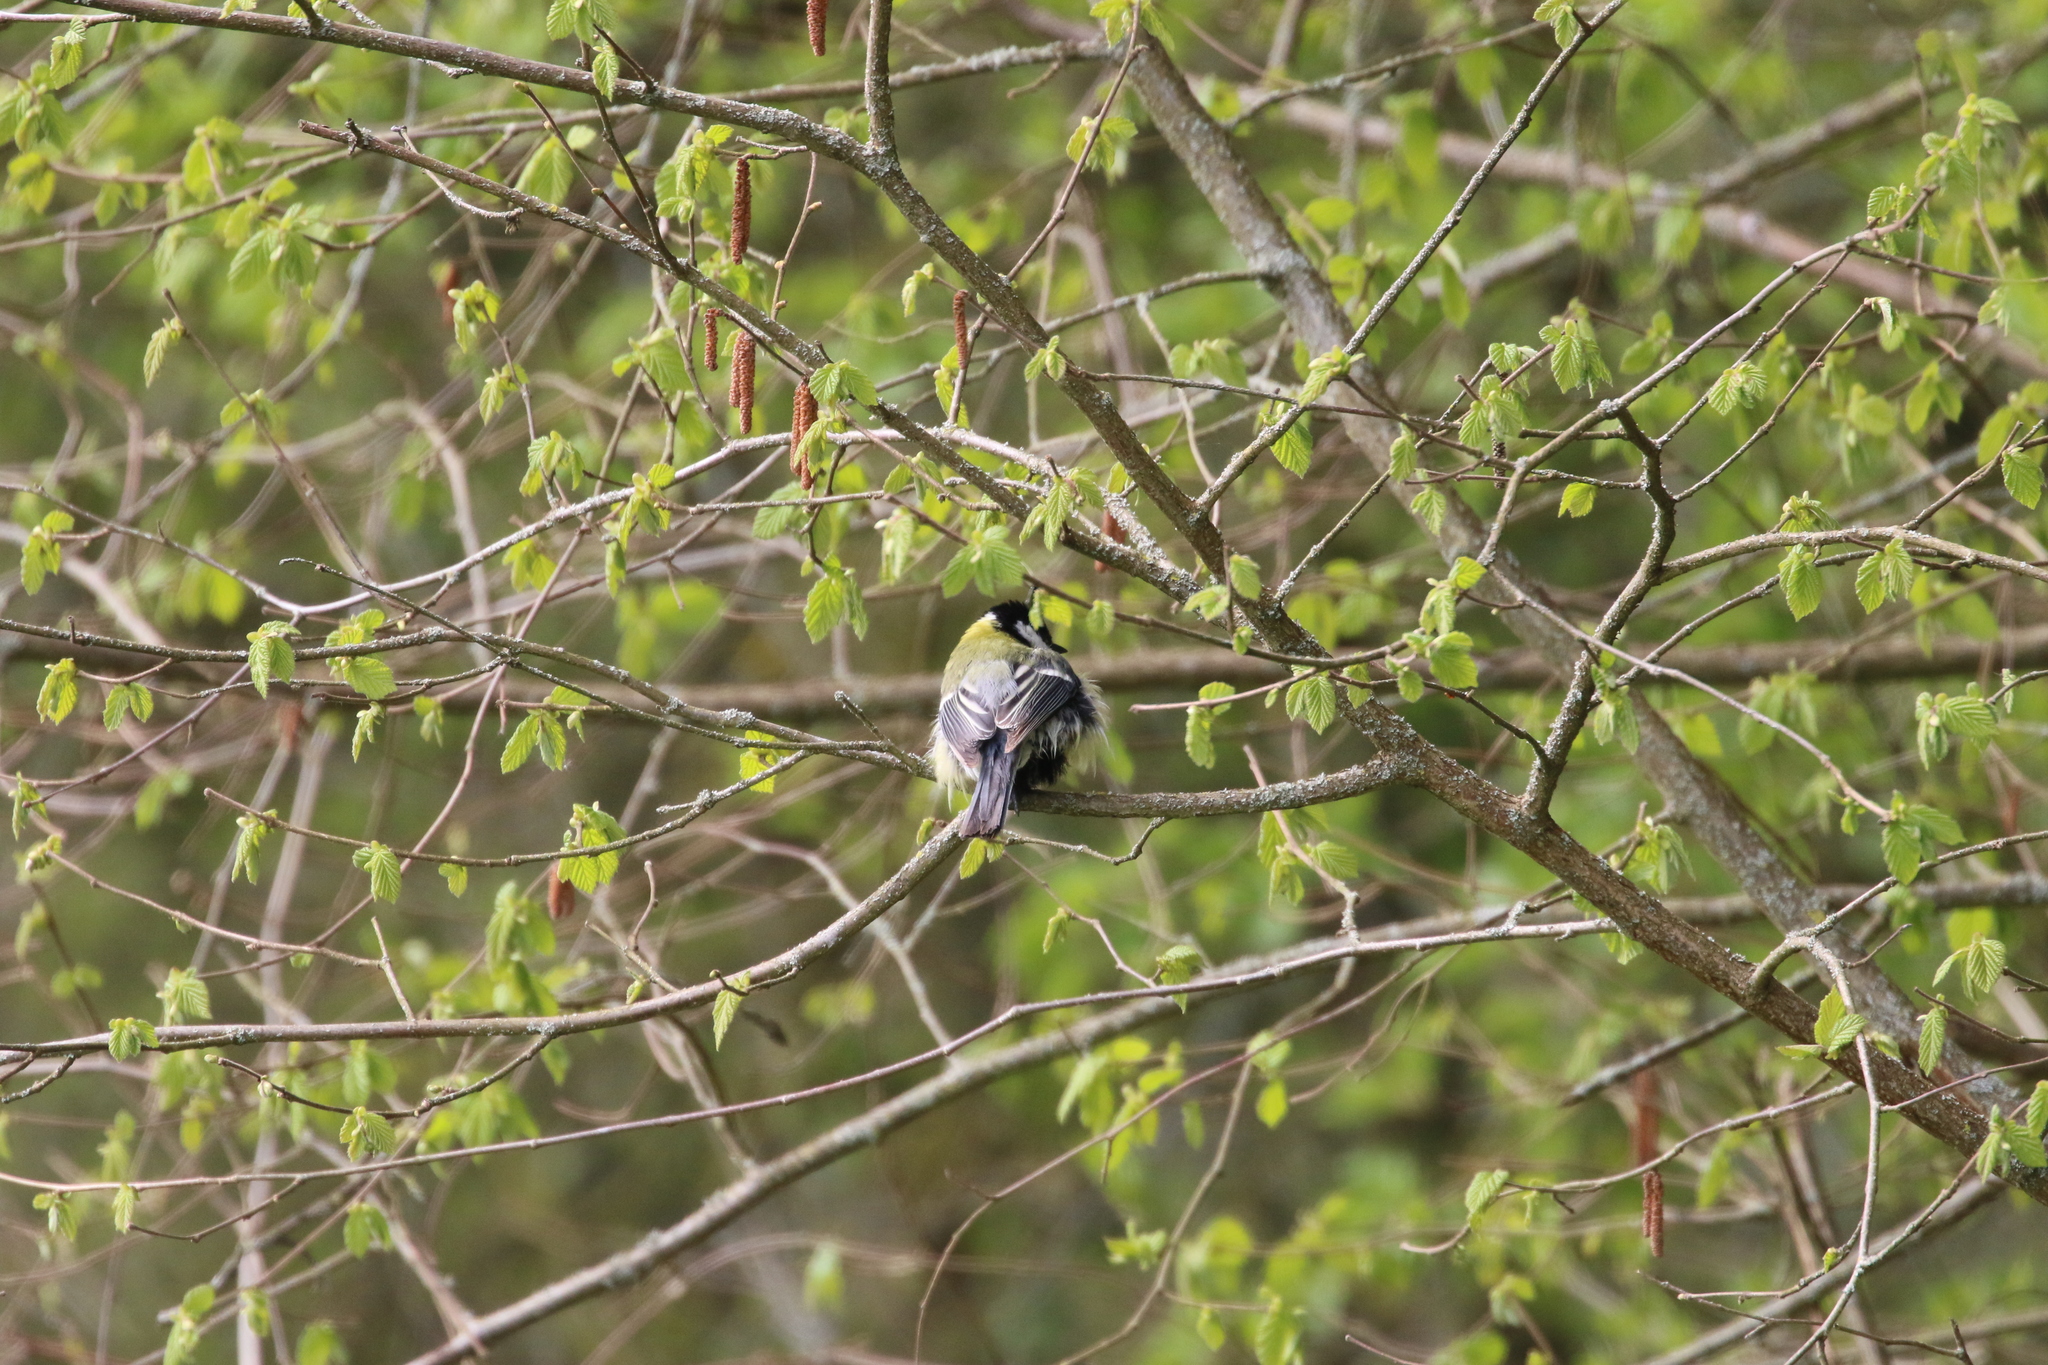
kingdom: Animalia
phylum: Chordata
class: Aves
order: Passeriformes
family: Paridae
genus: Parus
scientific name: Parus major
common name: Great tit
